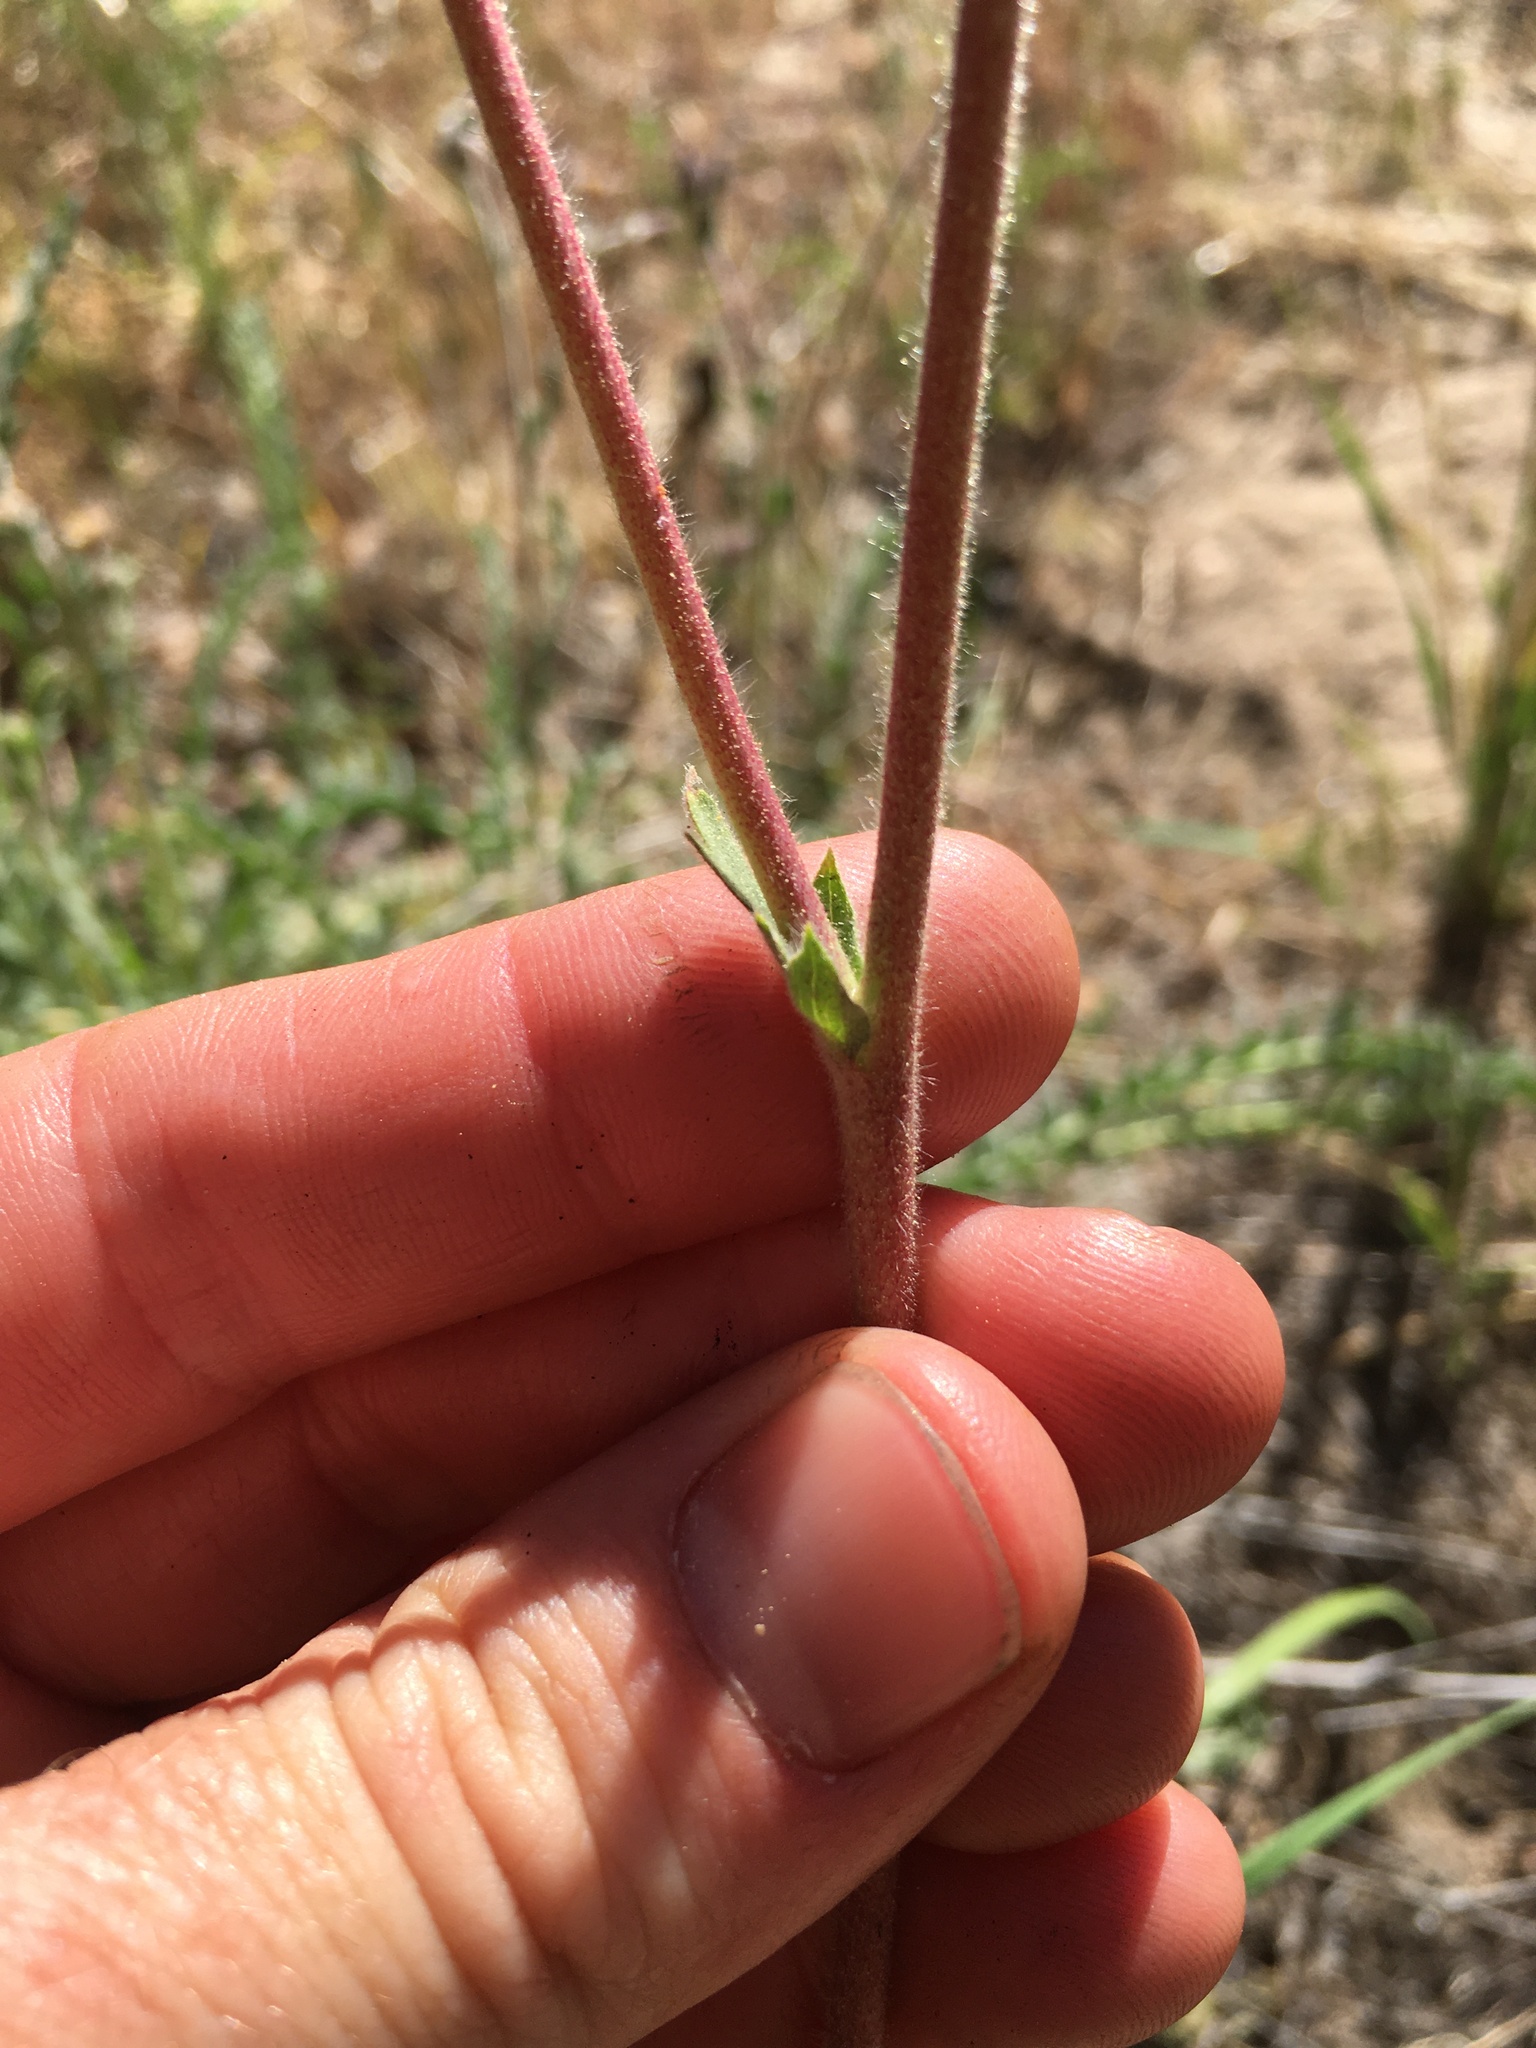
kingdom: Plantae
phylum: Tracheophyta
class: Magnoliopsida
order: Rosales
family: Rosaceae
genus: Potentilla
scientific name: Potentilla purpurascens
